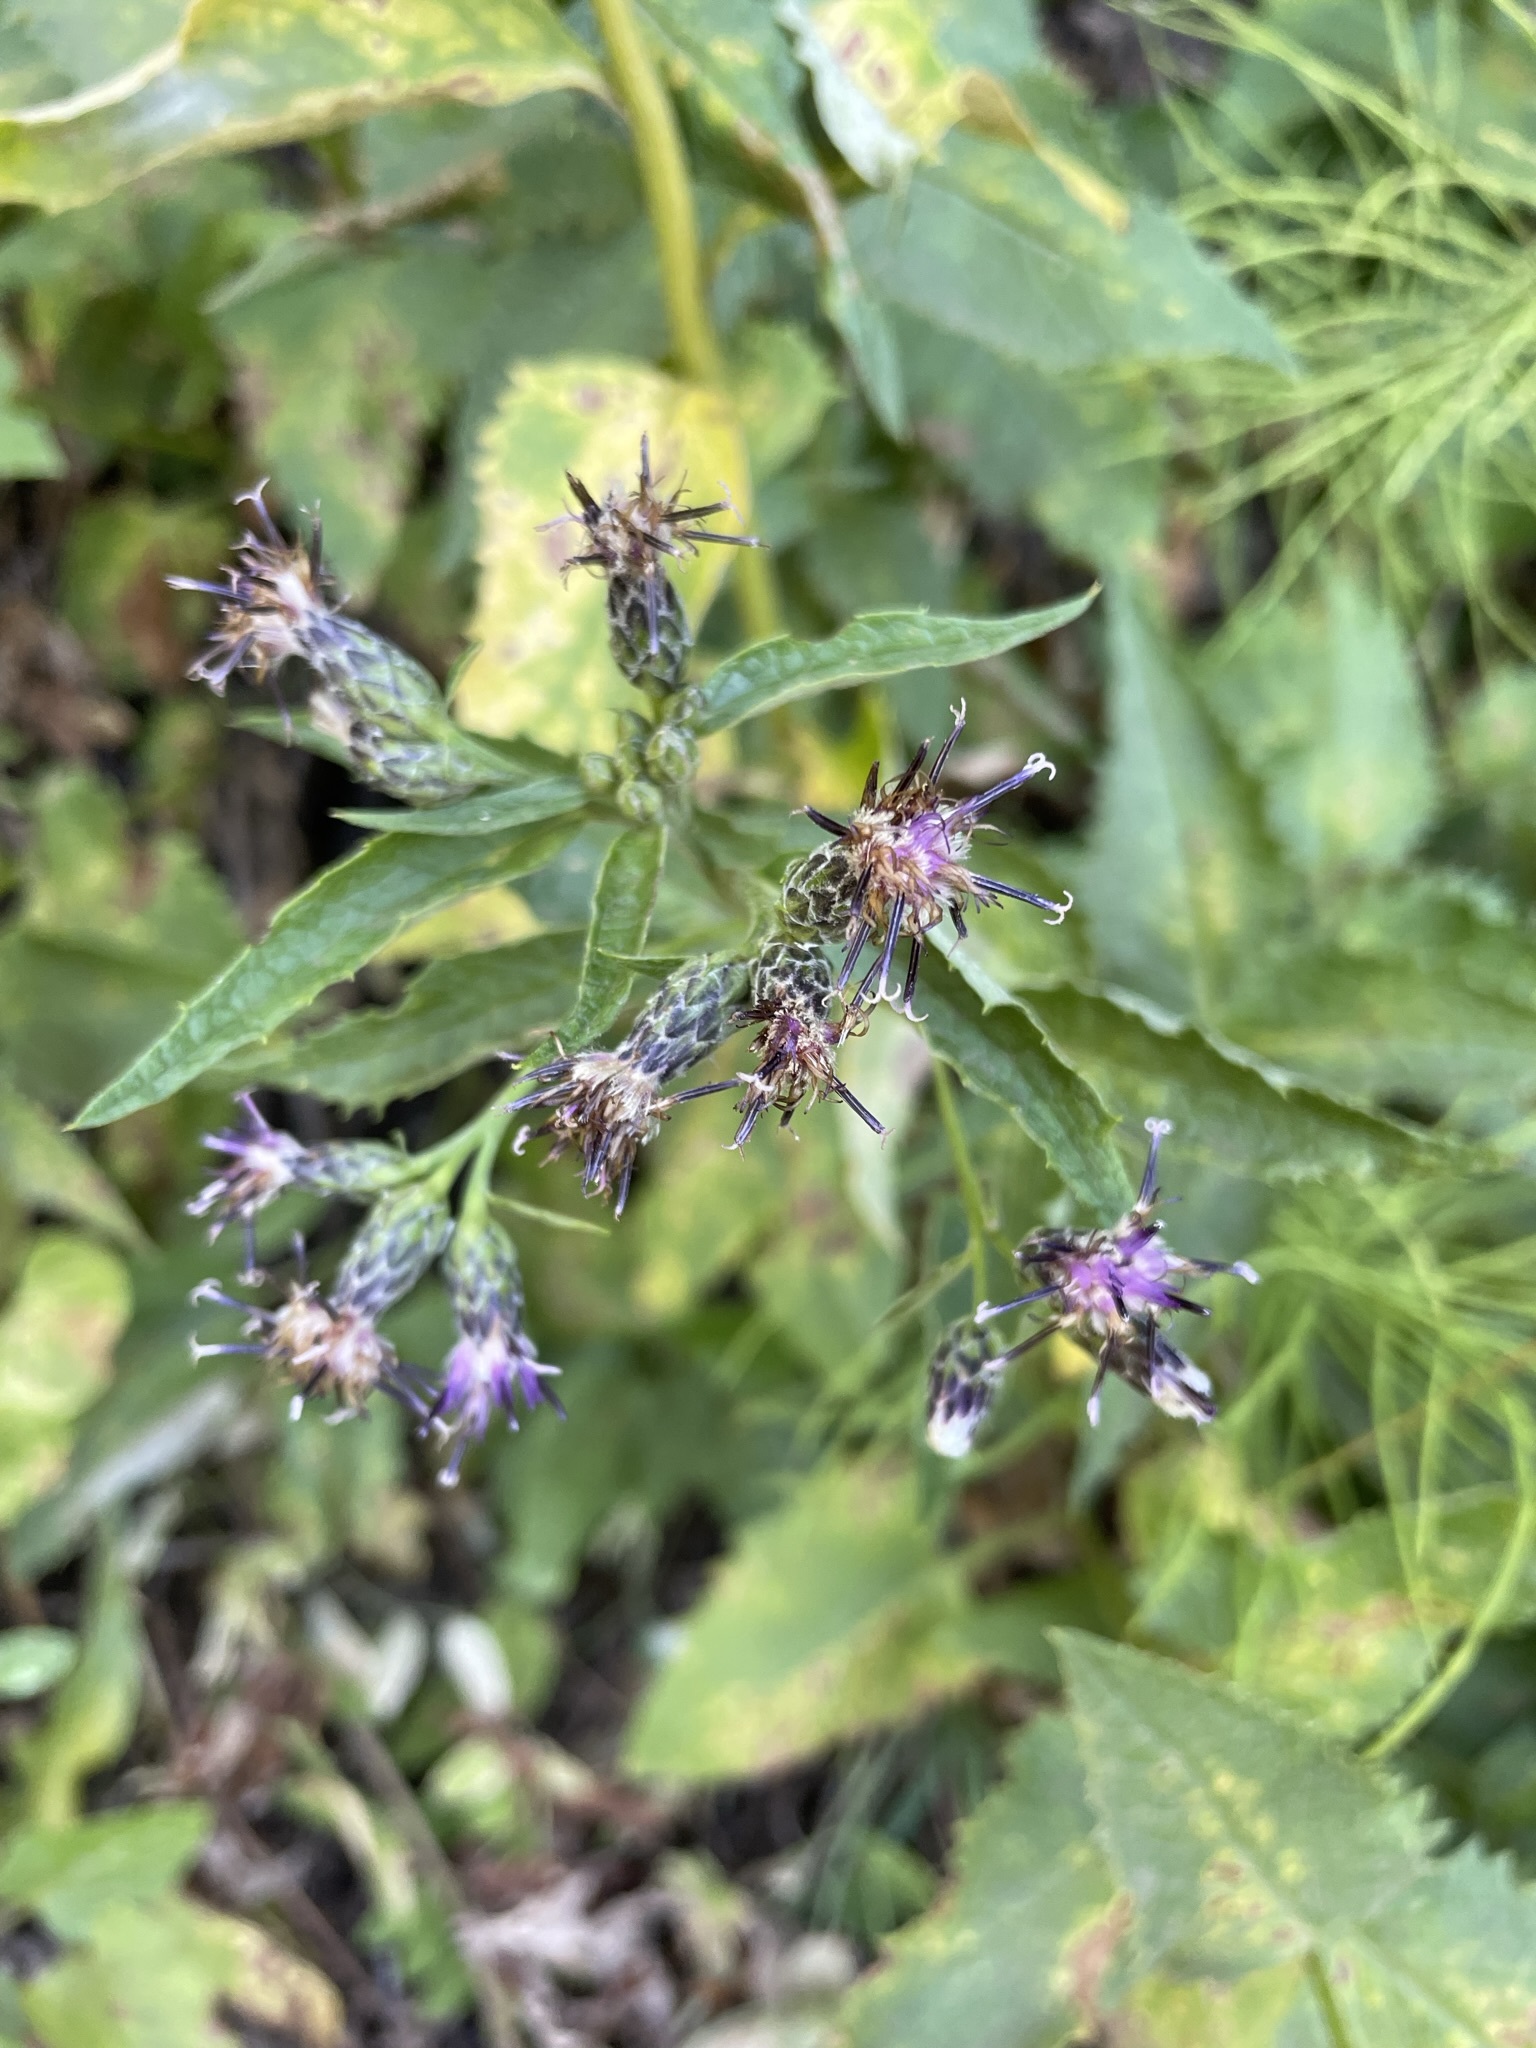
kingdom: Plantae
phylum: Tracheophyta
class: Magnoliopsida
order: Asterales
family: Asteraceae
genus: Saussurea
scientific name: Saussurea americana
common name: American saw-wort
